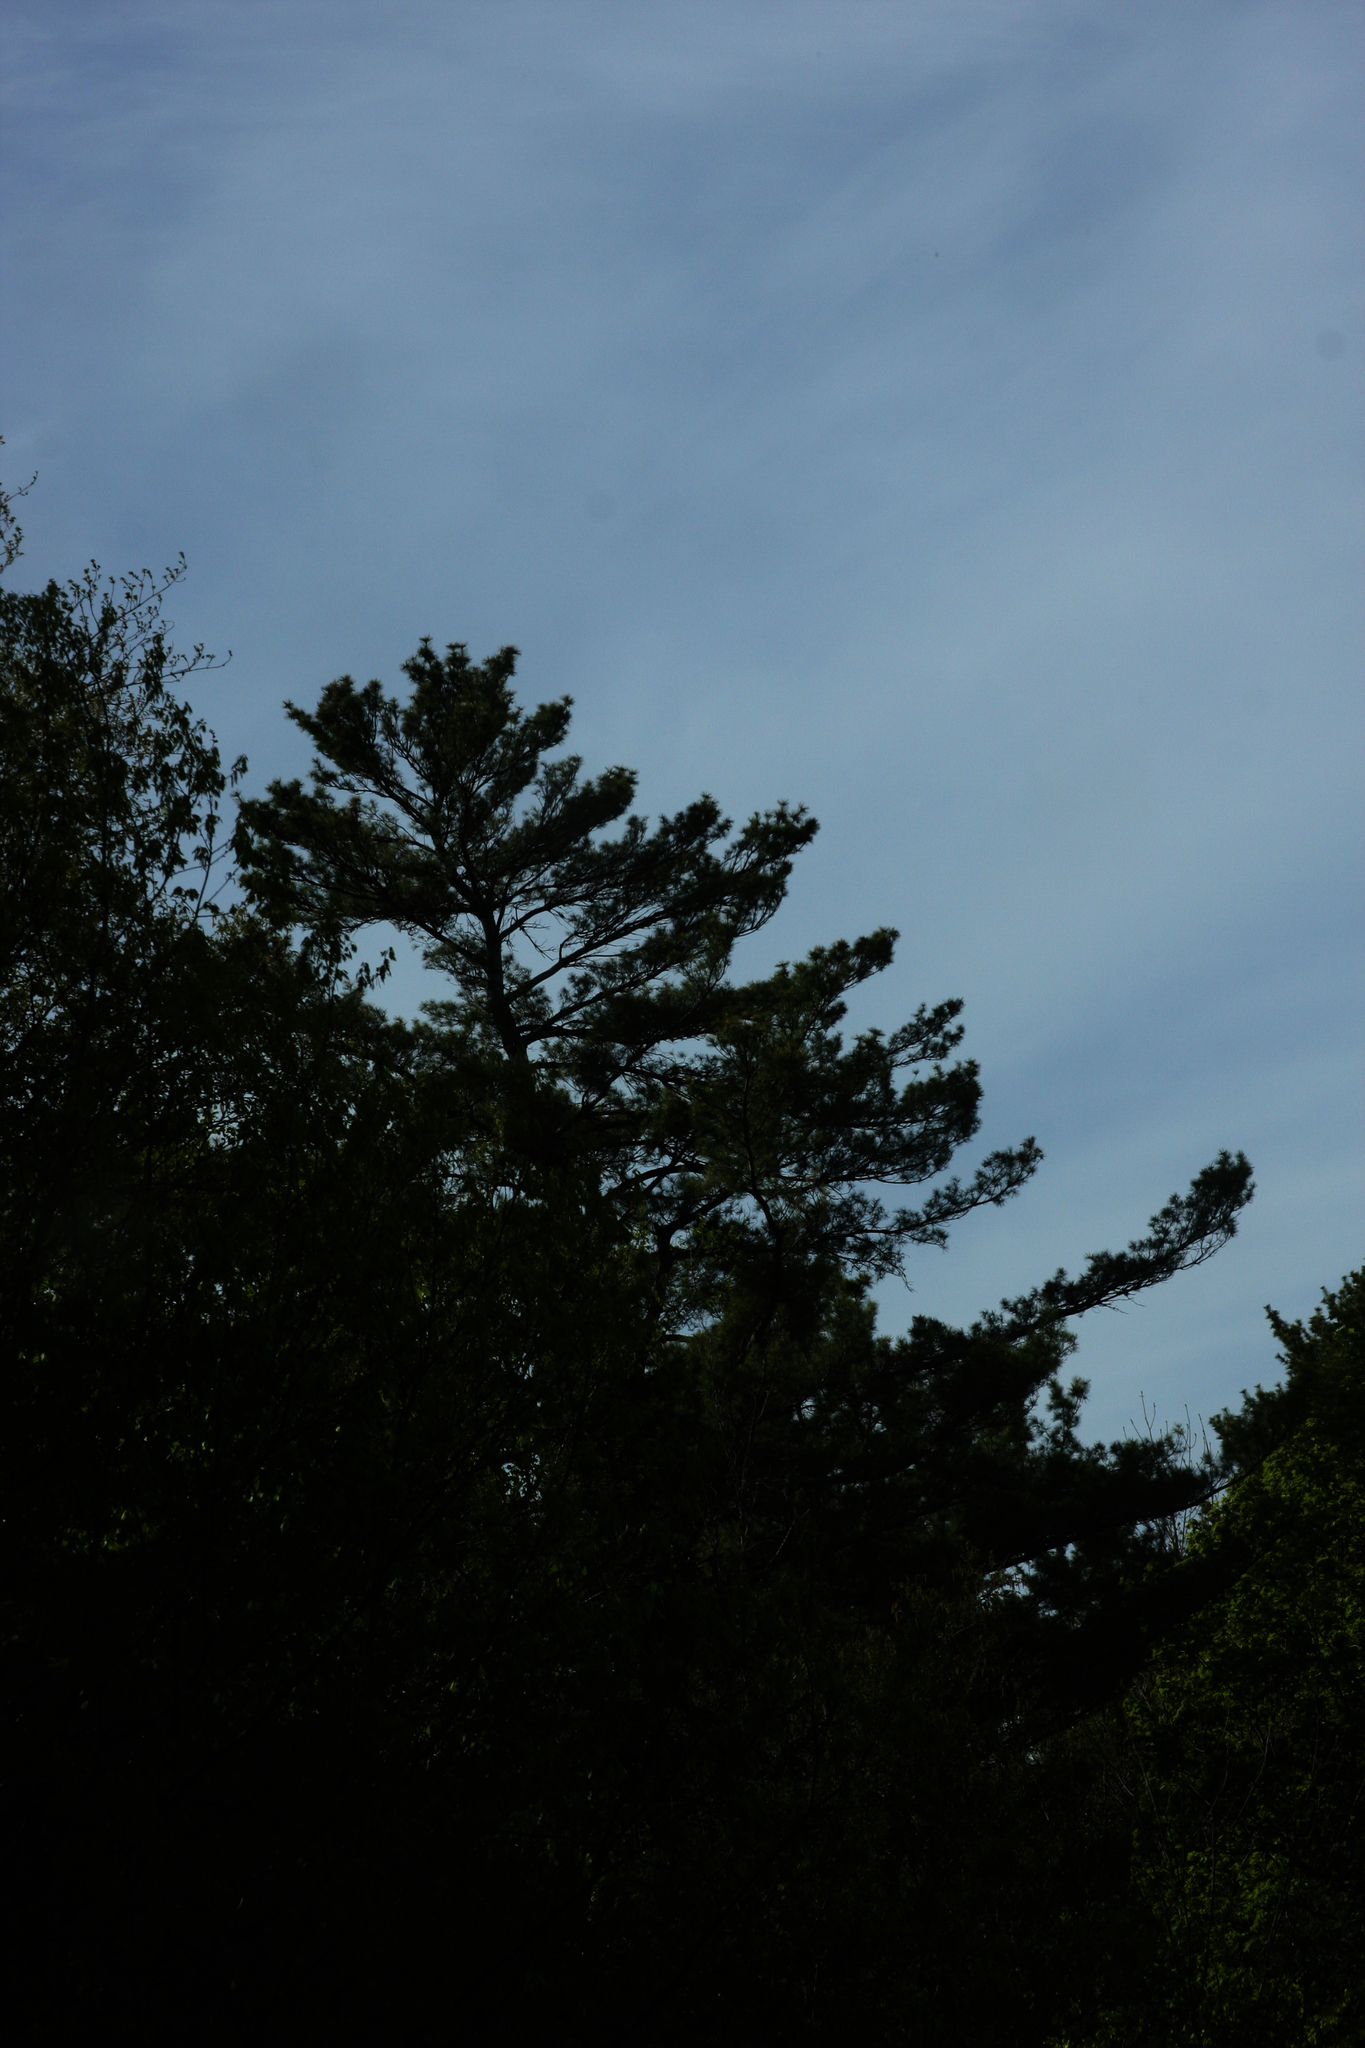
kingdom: Plantae
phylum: Tracheophyta
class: Pinopsida
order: Pinales
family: Pinaceae
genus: Pinus
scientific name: Pinus strobus
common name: Weymouth pine
